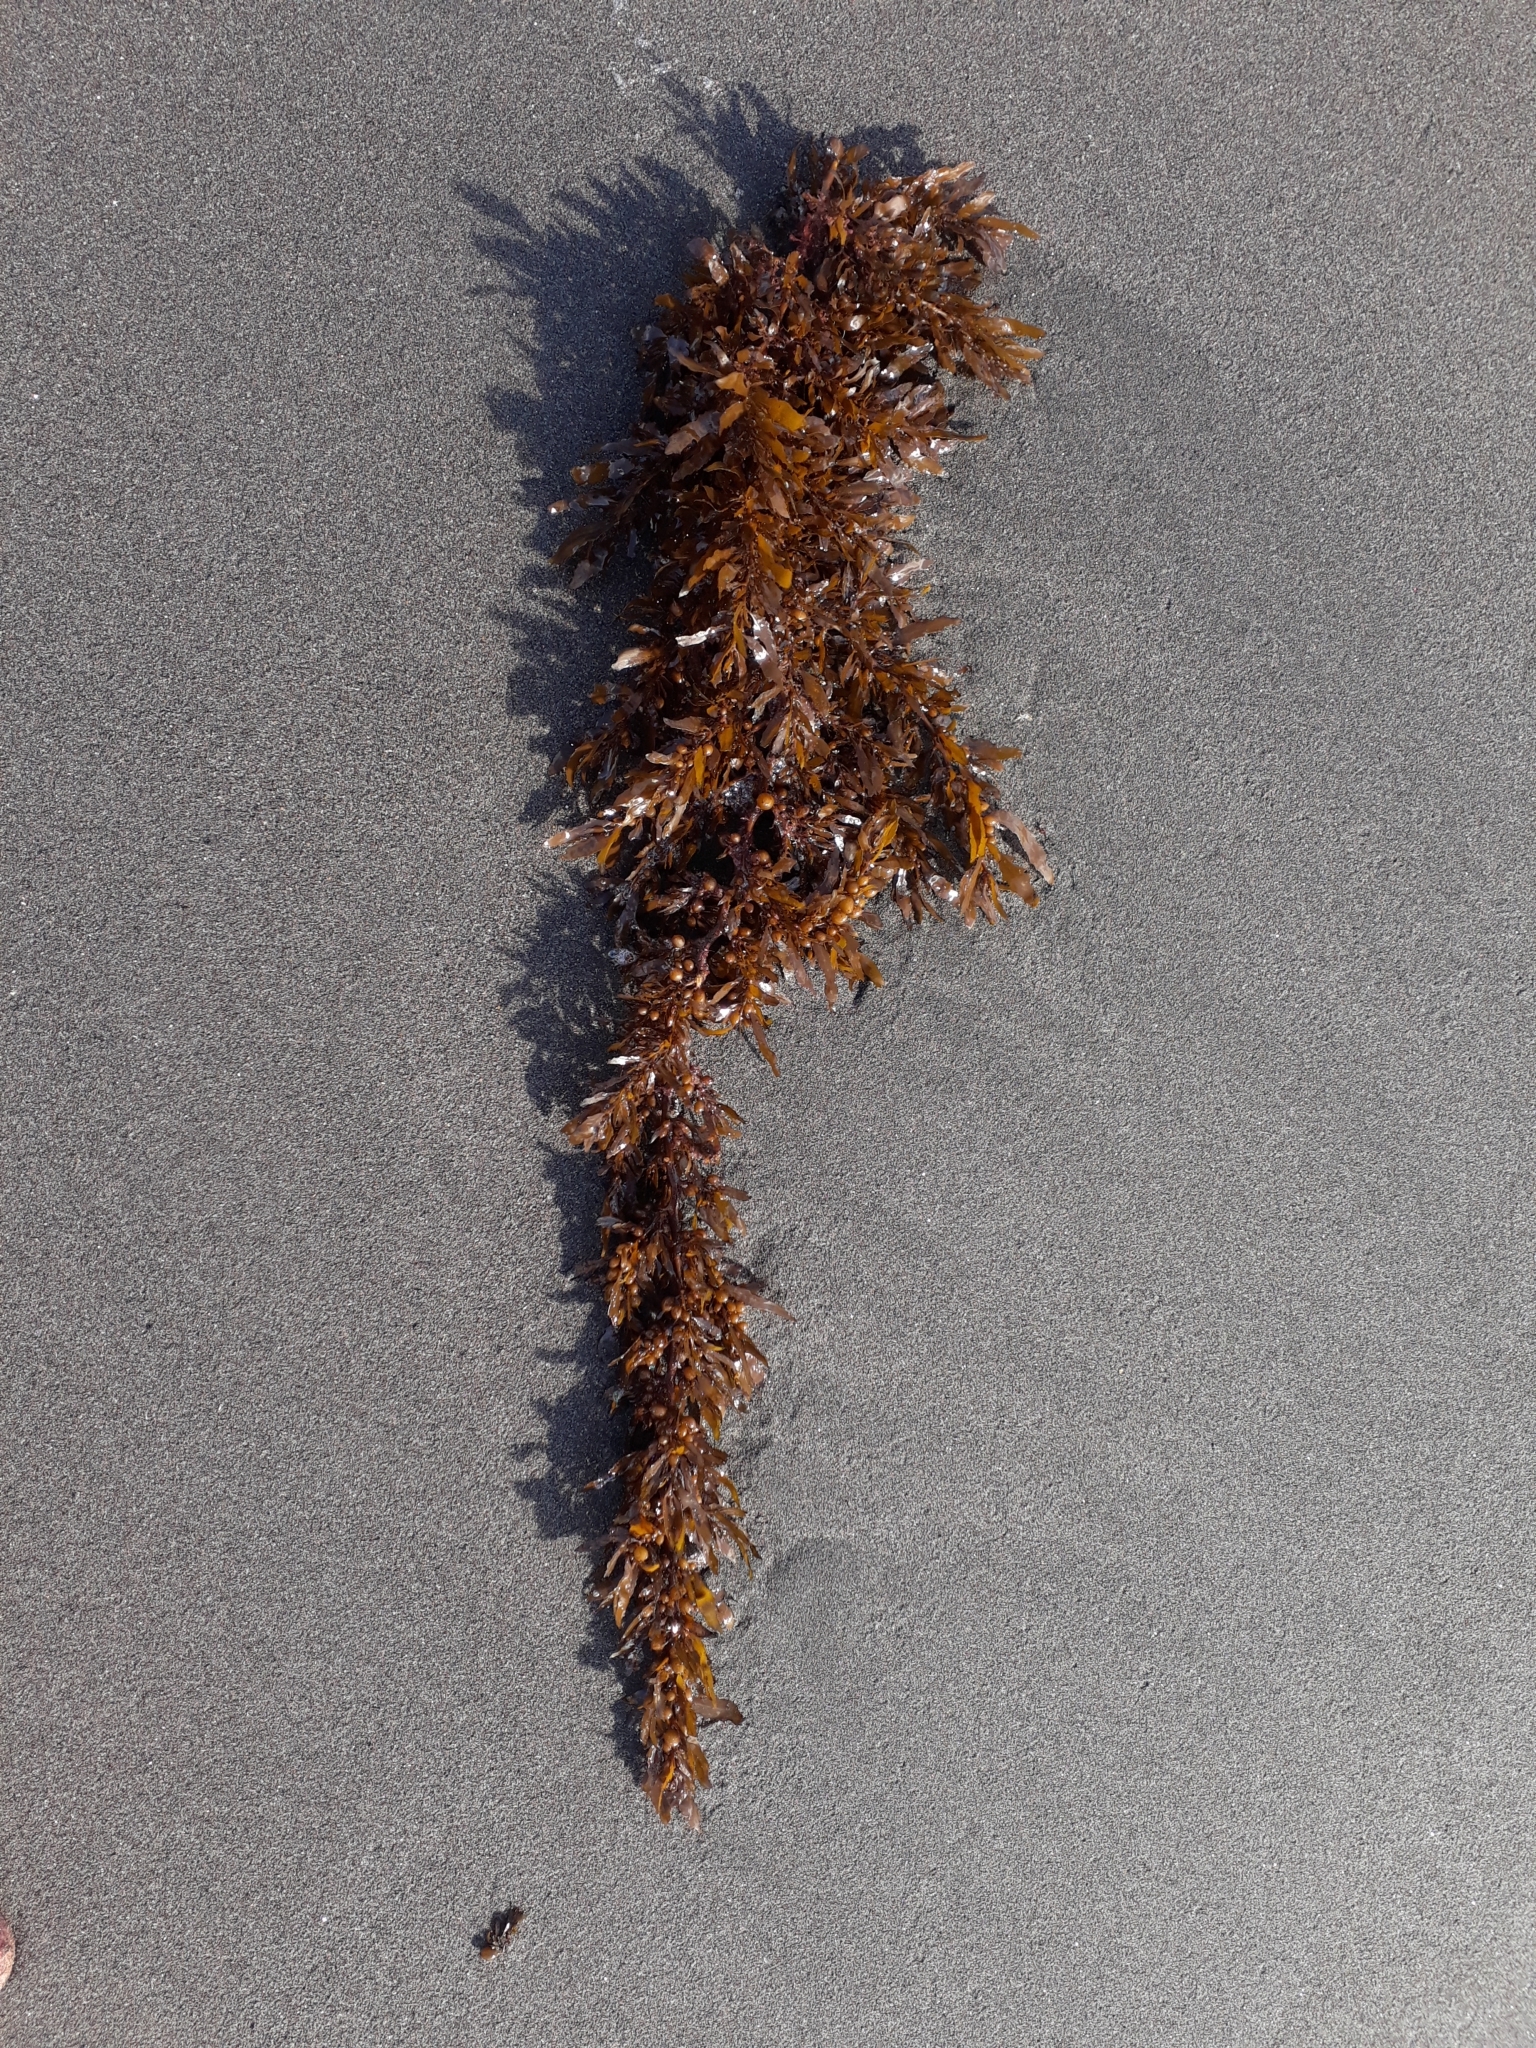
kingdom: Chromista
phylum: Ochrophyta
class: Phaeophyceae
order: Fucales
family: Sargassaceae
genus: Sargassum
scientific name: Sargassum sinclairii
